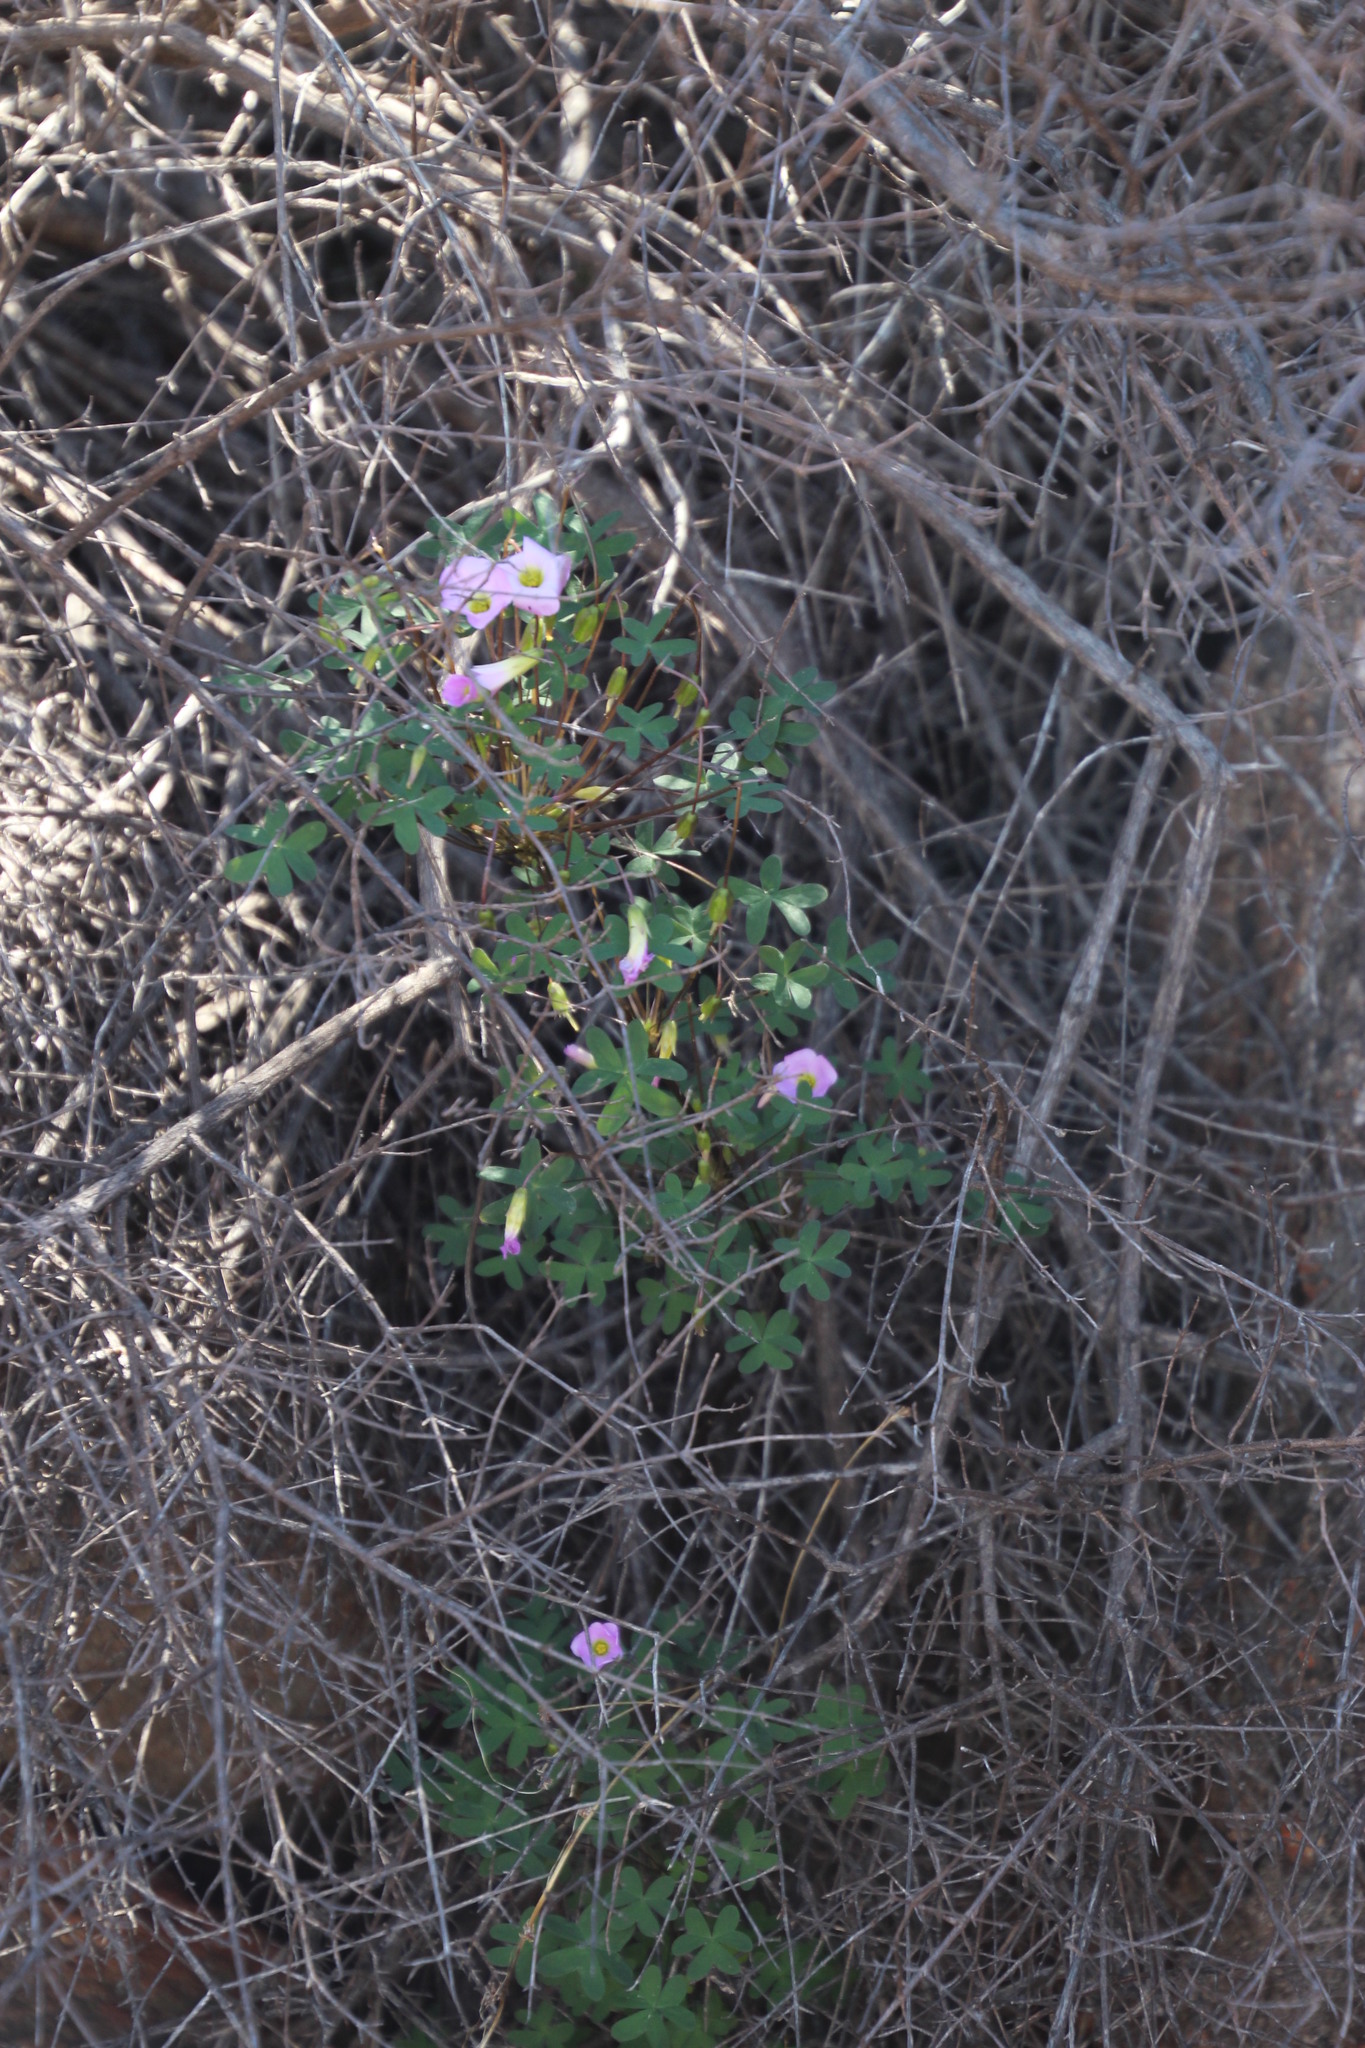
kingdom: Plantae
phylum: Tracheophyta
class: Magnoliopsida
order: Oxalidales
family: Oxalidaceae
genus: Oxalis
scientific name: Oxalis comosa
